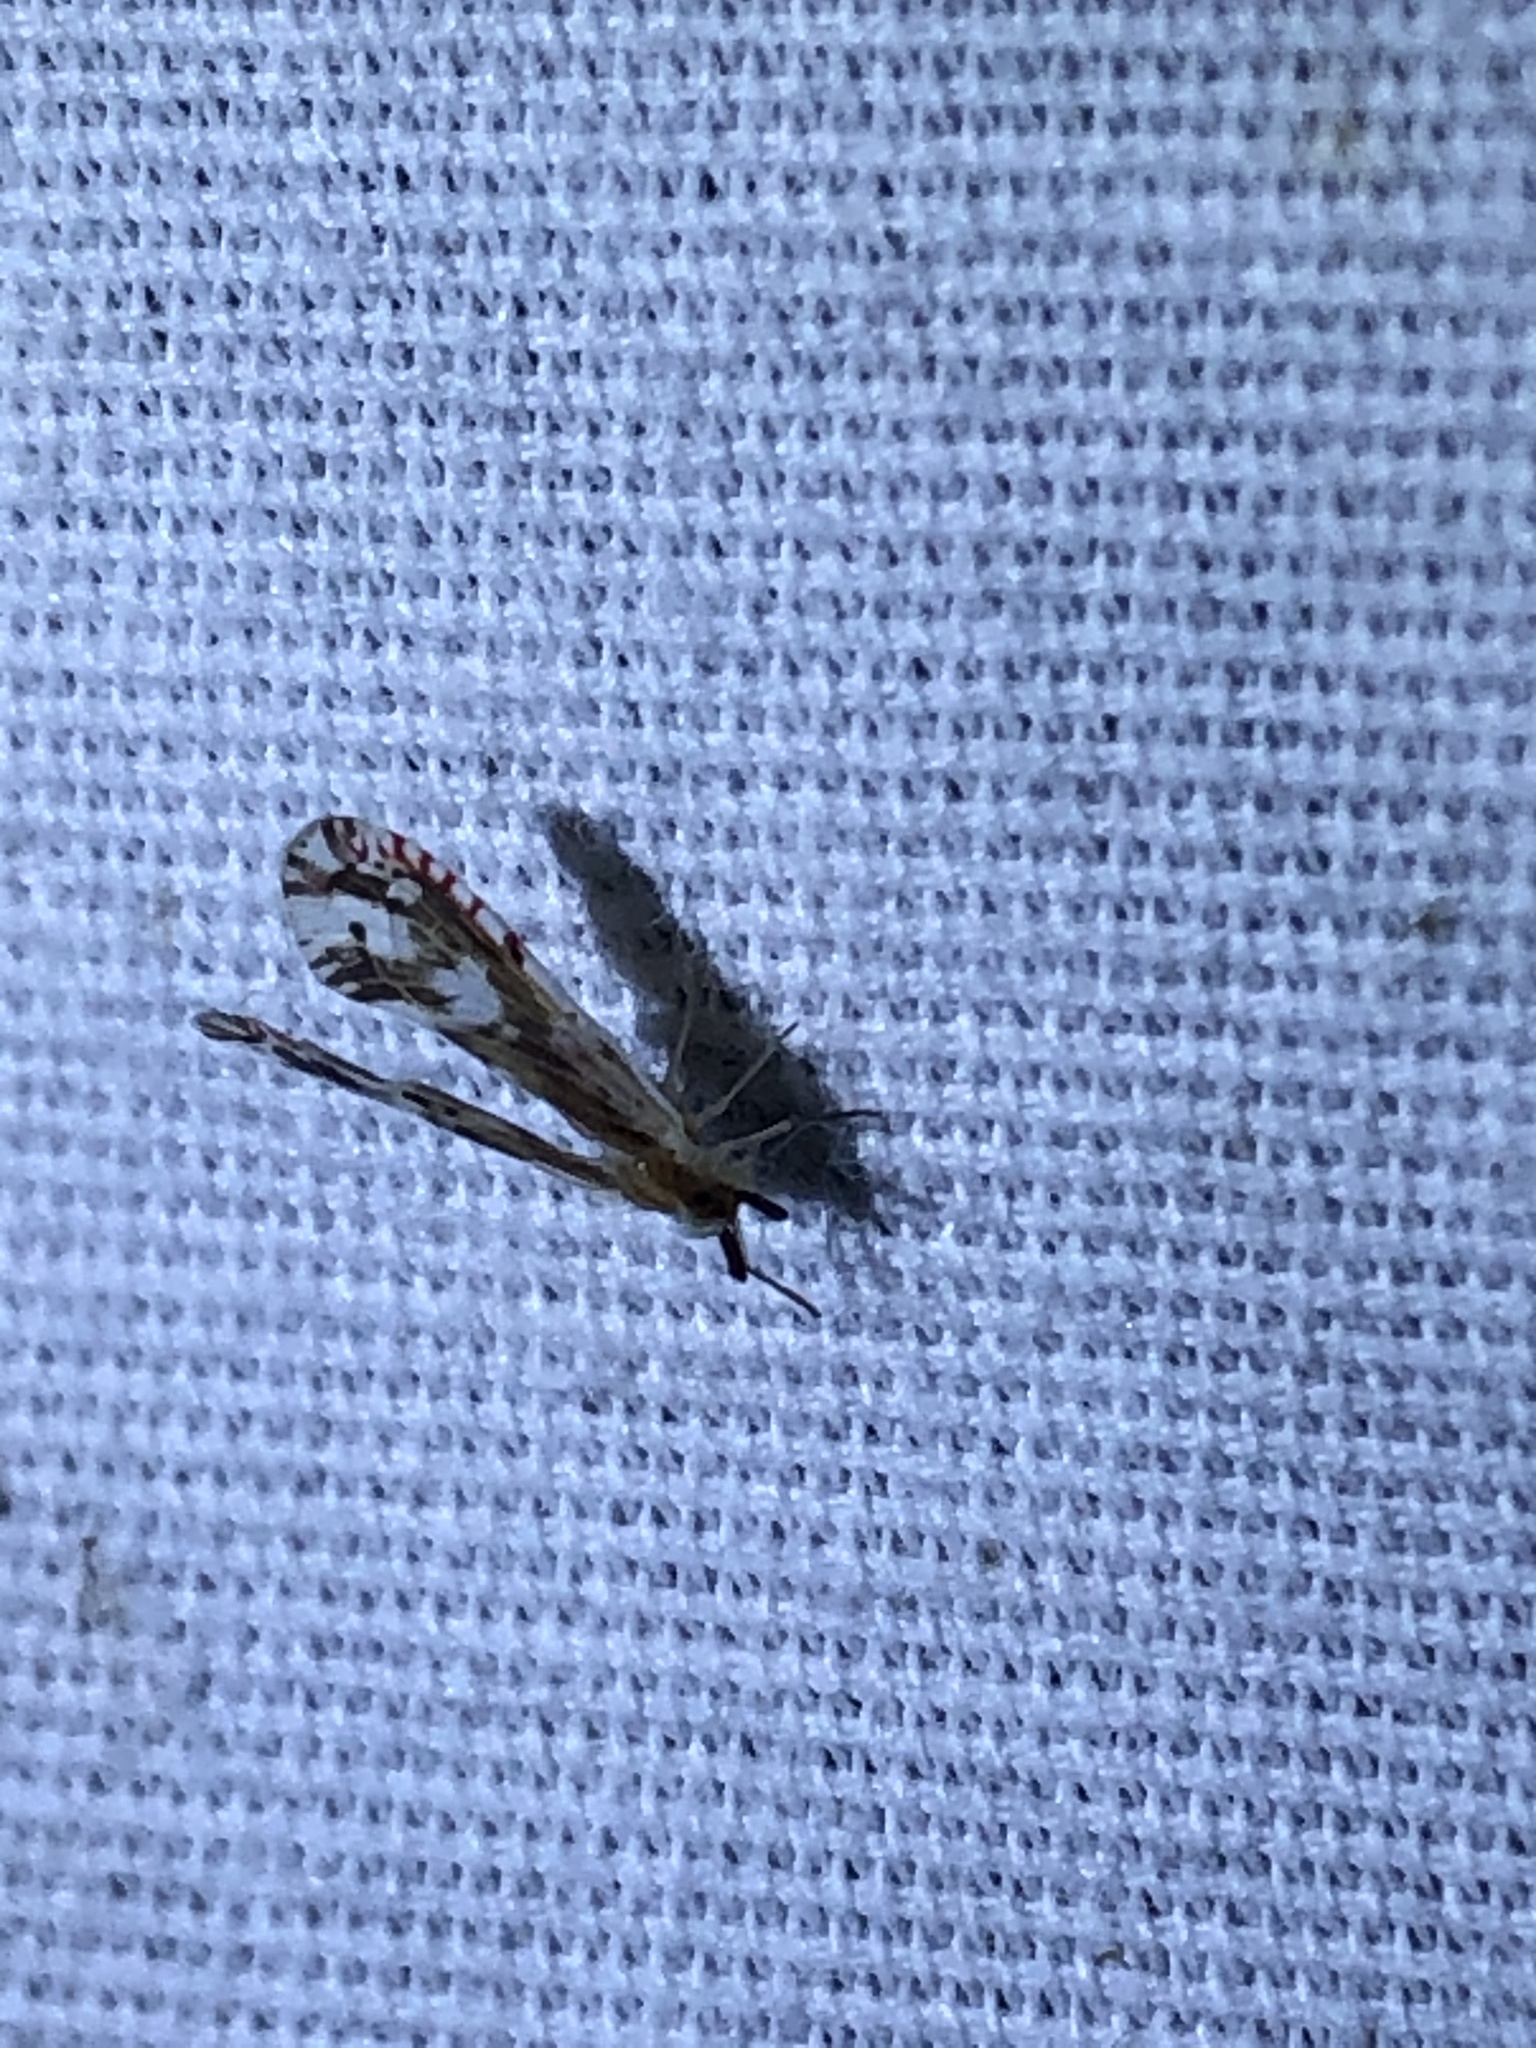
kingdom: Animalia
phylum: Arthropoda
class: Insecta
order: Hemiptera
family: Derbidae
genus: Anotia
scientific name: Anotia fitchi
